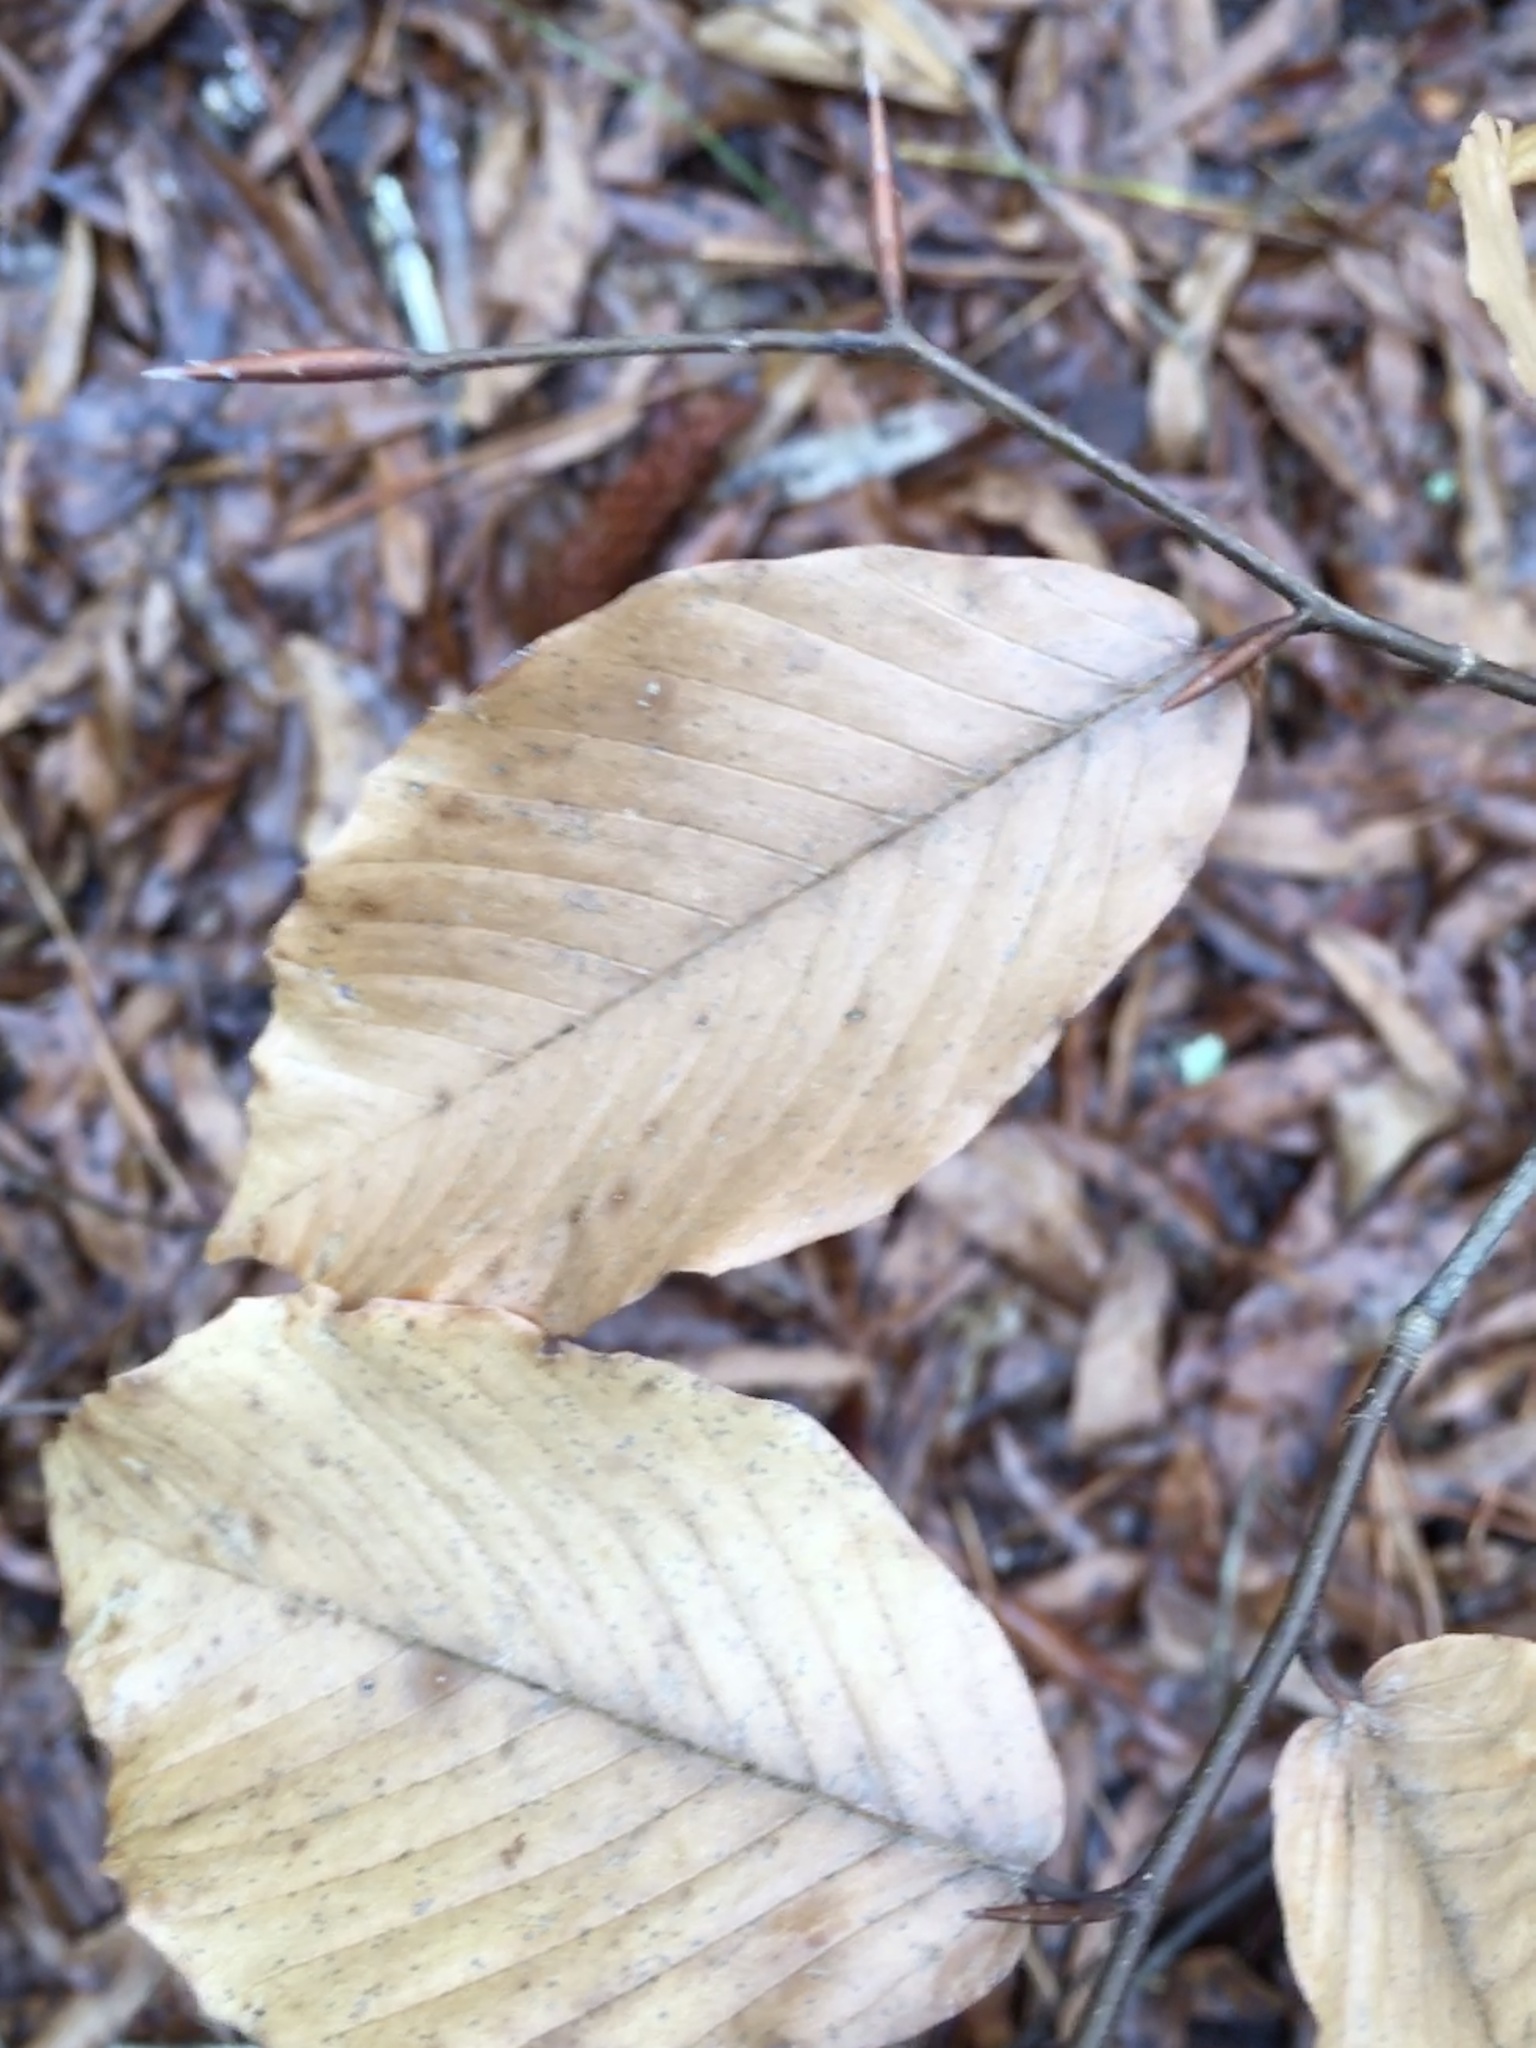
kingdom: Plantae
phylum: Tracheophyta
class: Magnoliopsida
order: Fagales
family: Fagaceae
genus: Fagus
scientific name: Fagus grandifolia
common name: American beech
